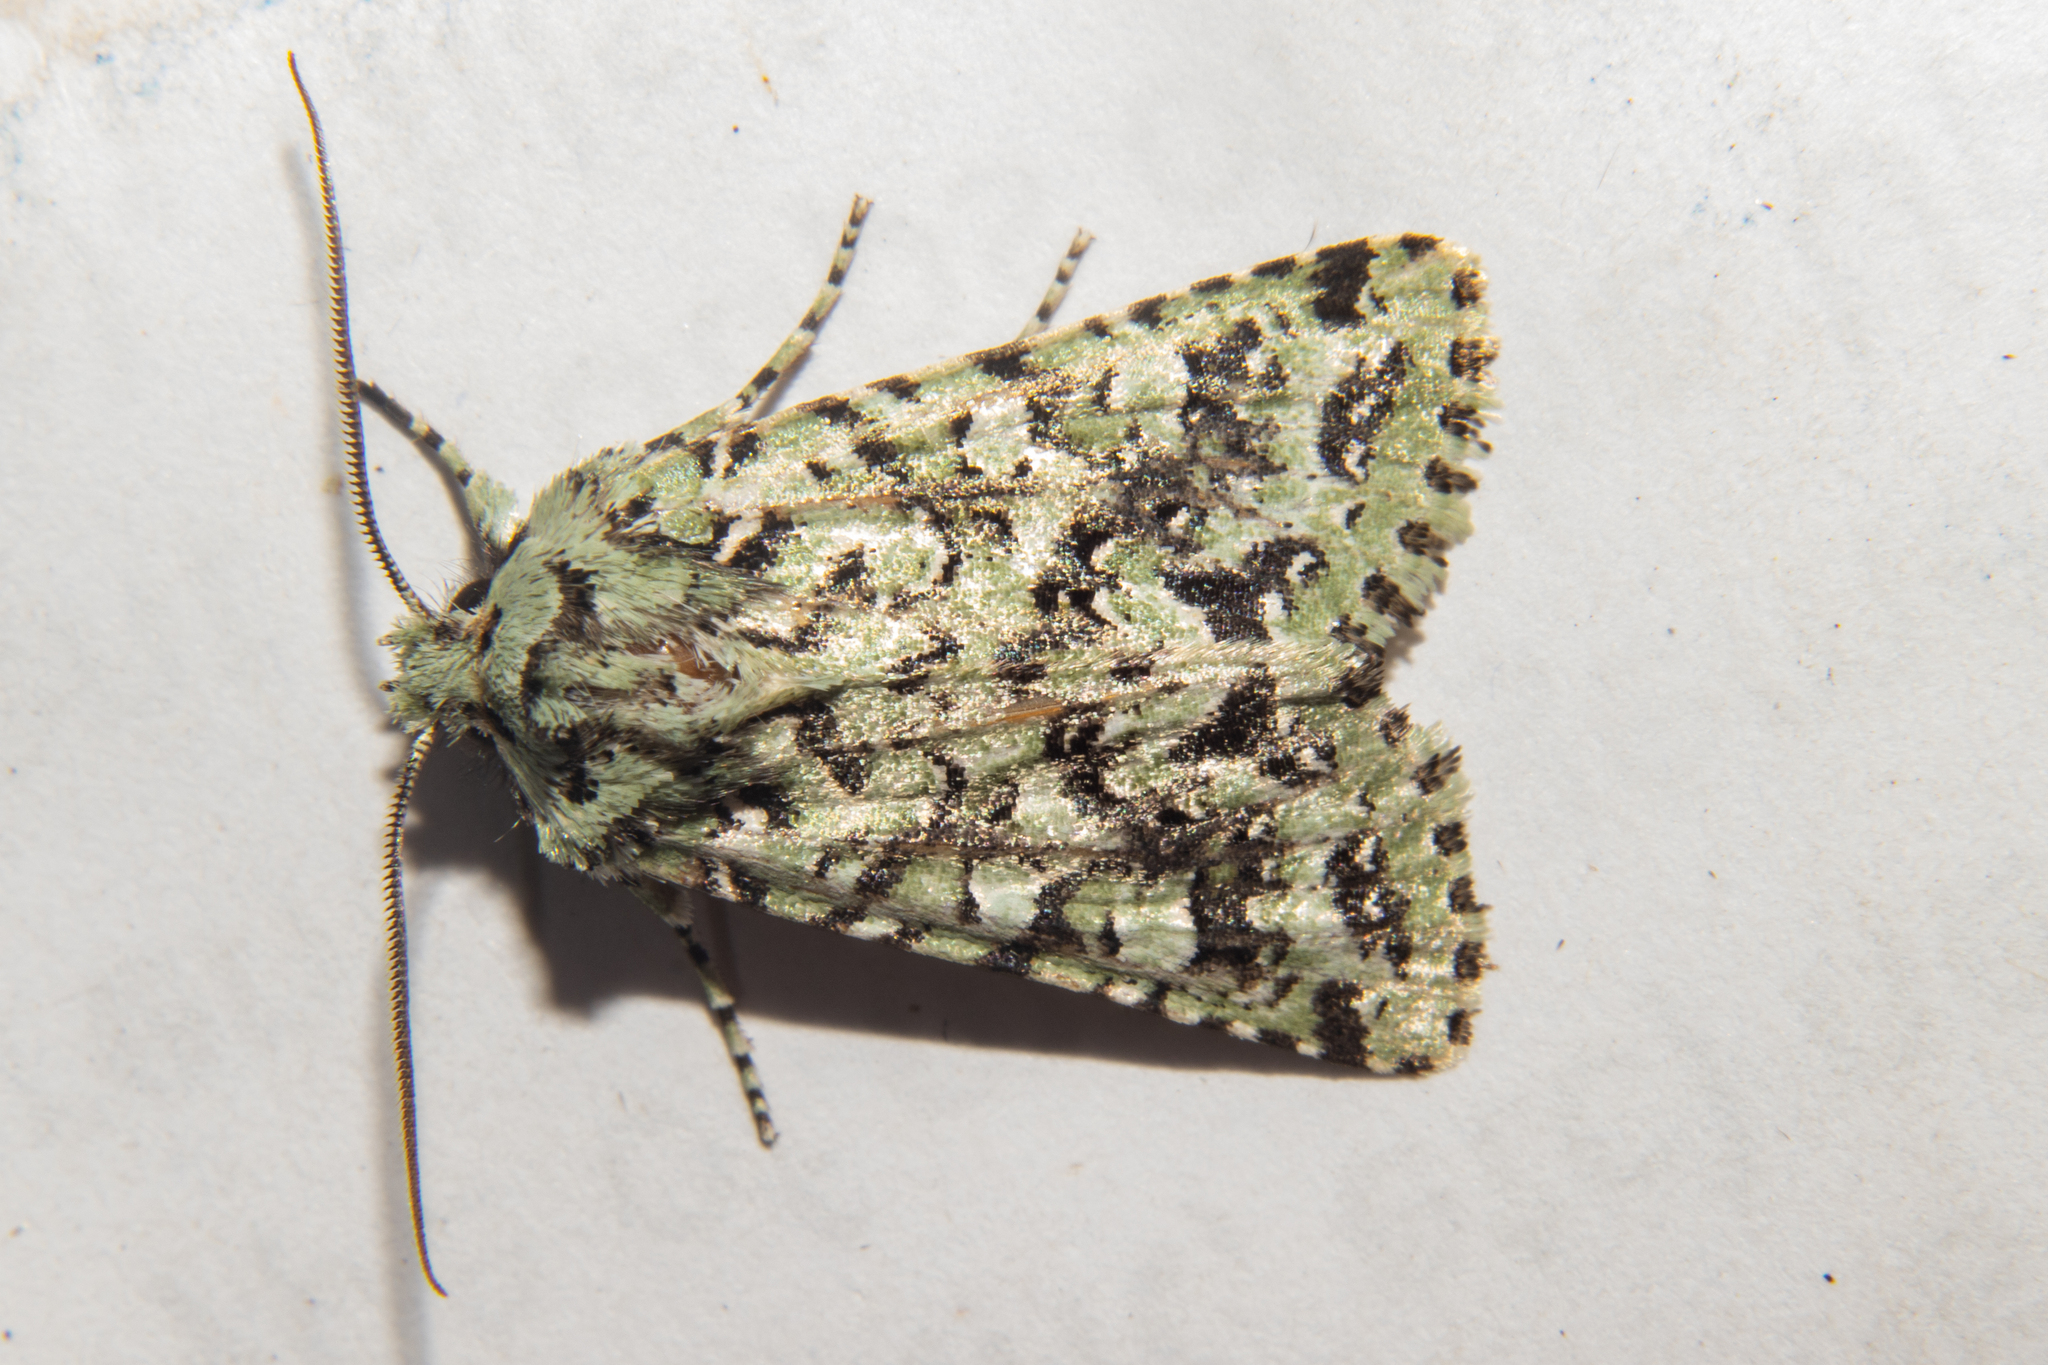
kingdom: Animalia
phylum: Arthropoda
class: Insecta
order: Lepidoptera
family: Noctuidae
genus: Meterana
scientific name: Meterana
